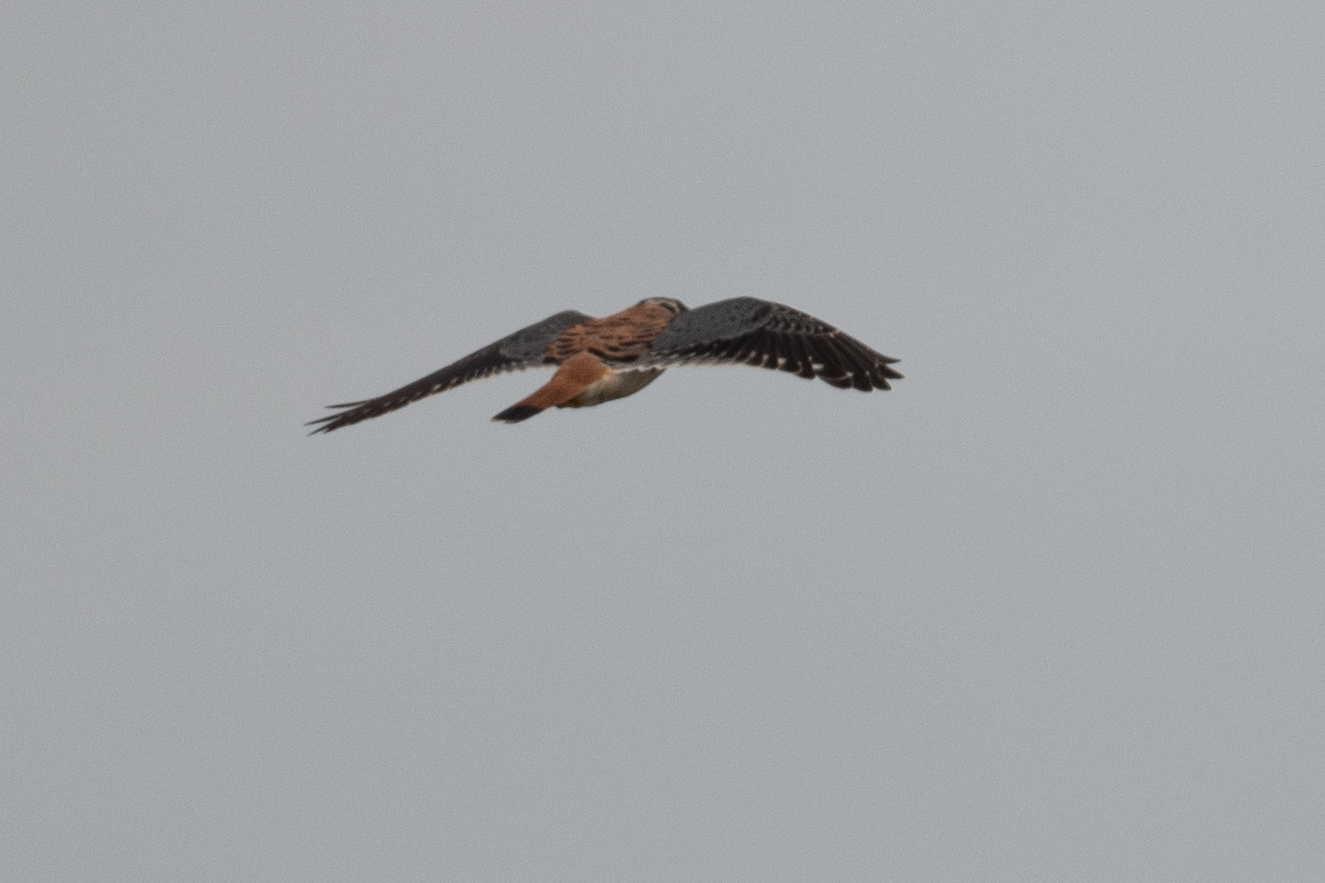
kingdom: Animalia
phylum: Chordata
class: Aves
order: Falconiformes
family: Falconidae
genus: Falco
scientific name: Falco sparverius
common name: American kestrel
